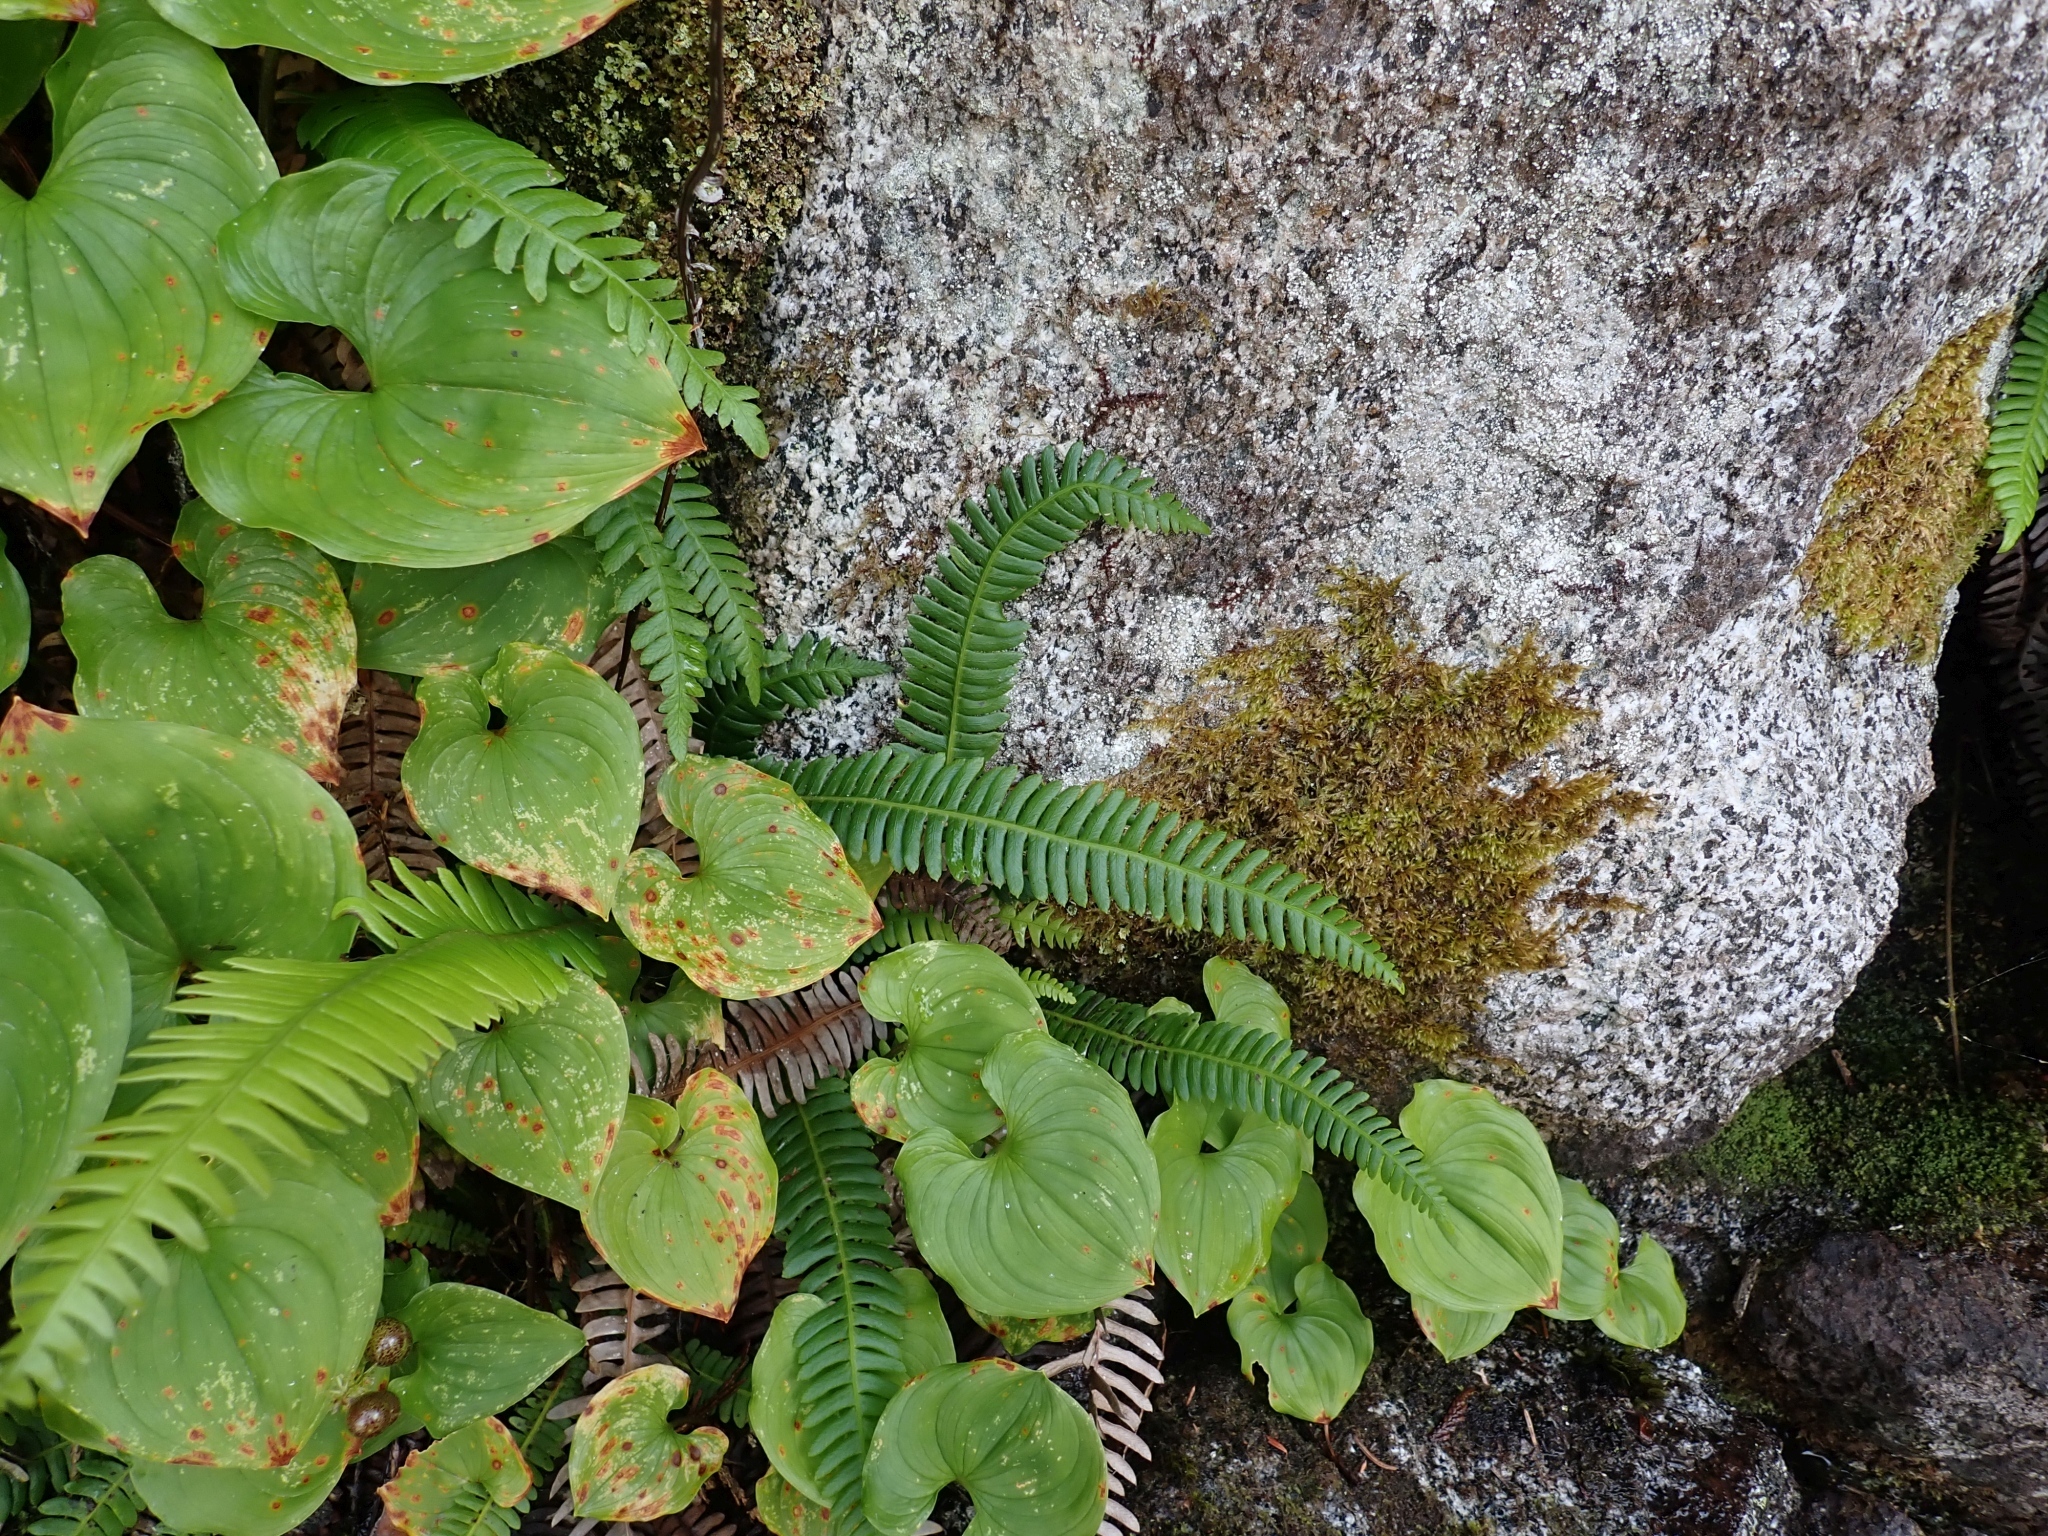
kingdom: Plantae
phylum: Tracheophyta
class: Polypodiopsida
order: Polypodiales
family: Blechnaceae
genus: Struthiopteris
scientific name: Struthiopteris spicant
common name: Deer fern
